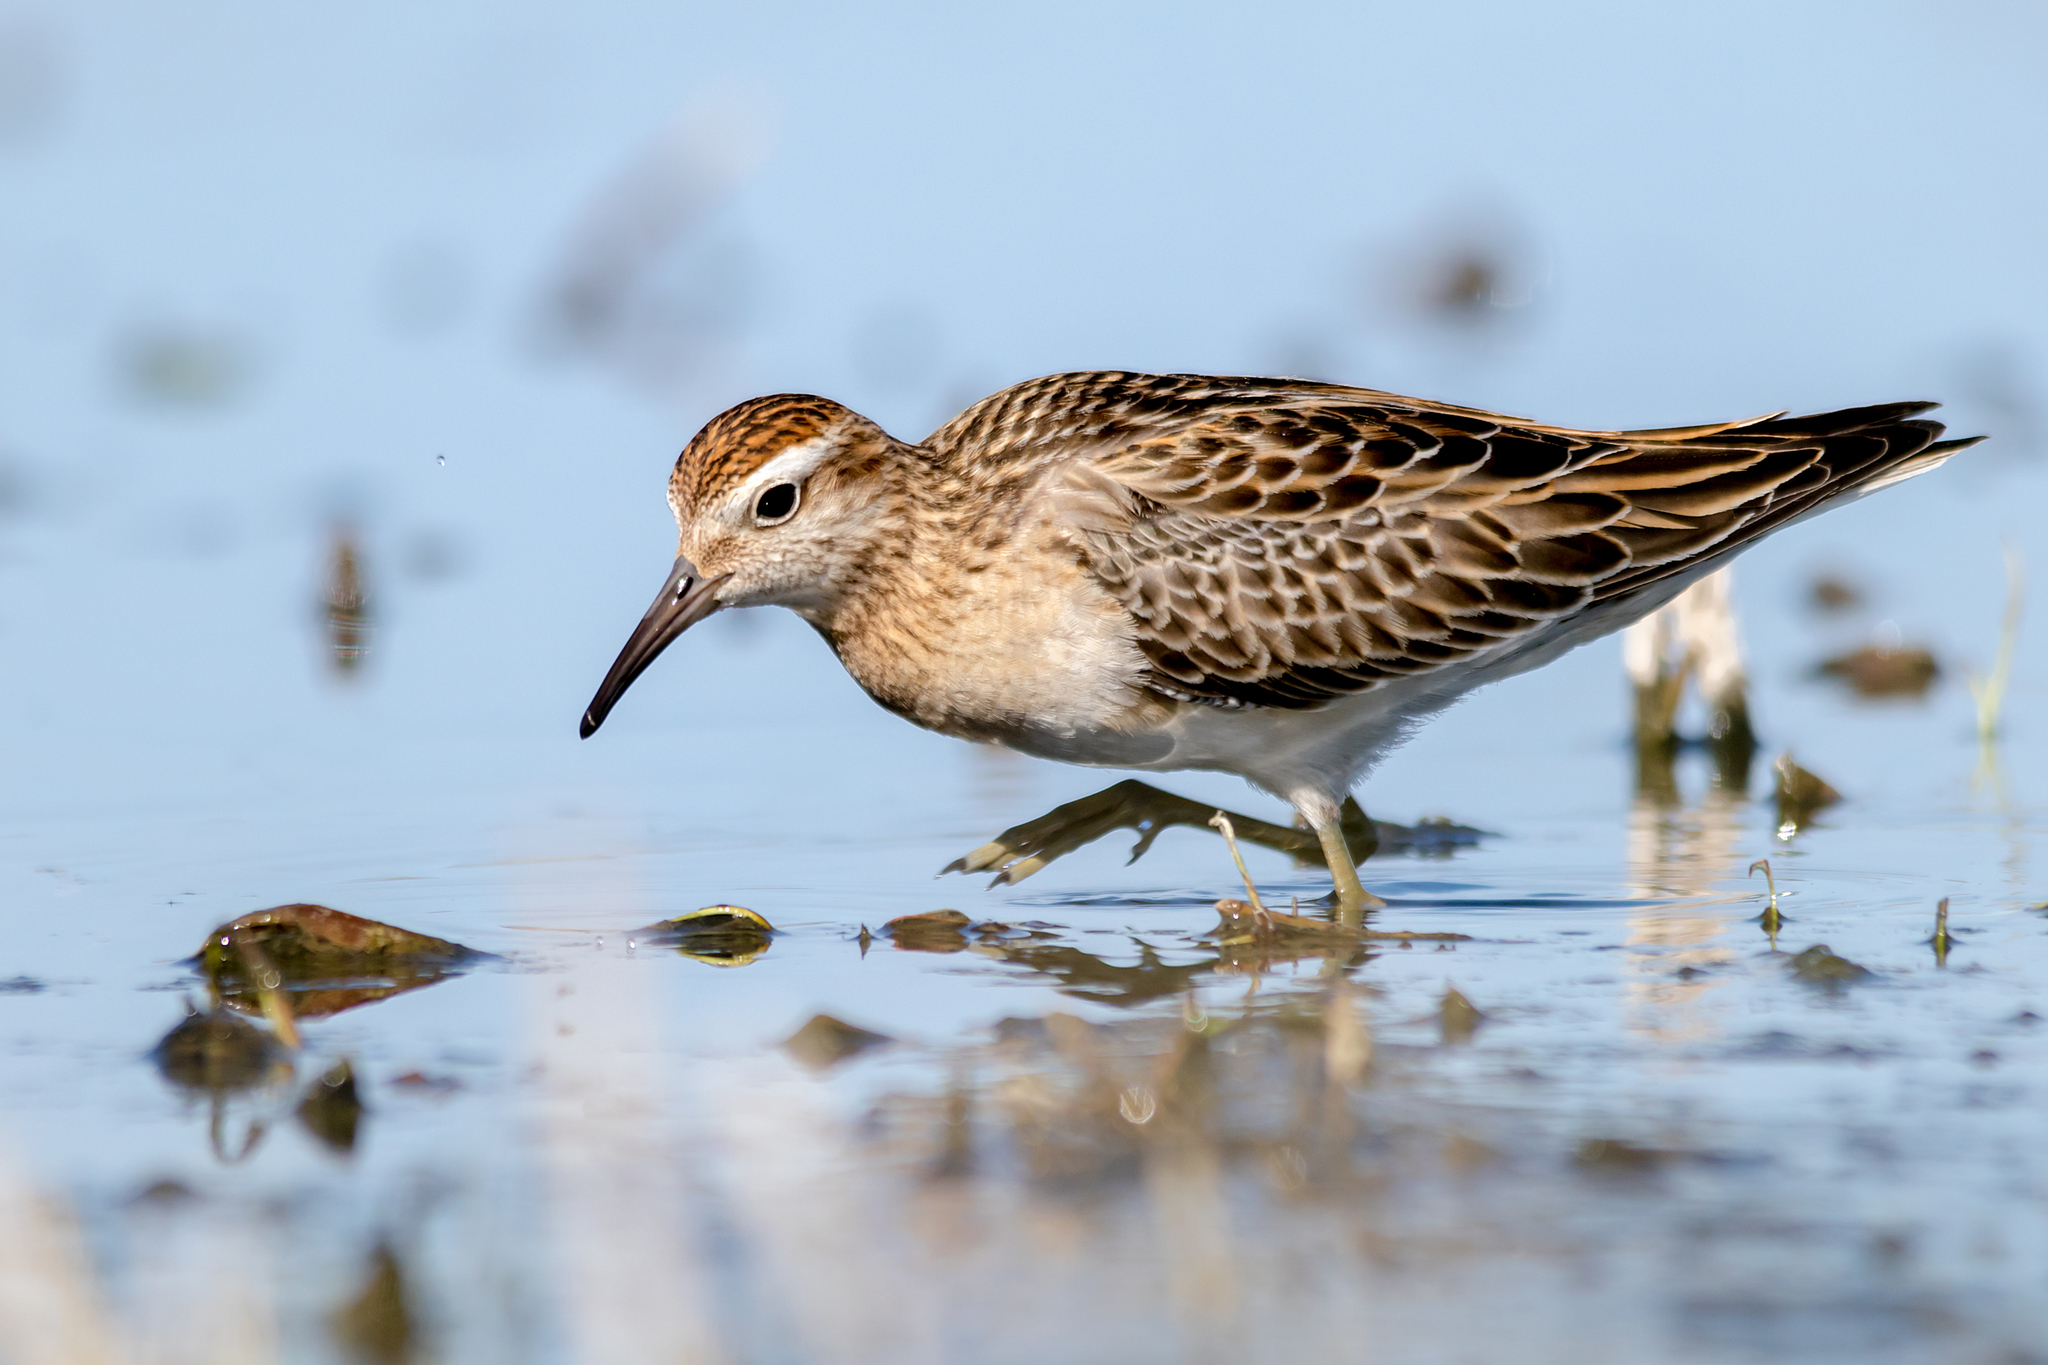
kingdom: Animalia
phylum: Chordata
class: Aves
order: Charadriiformes
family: Scolopacidae
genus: Calidris
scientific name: Calidris acuminata
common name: Sharp-tailed sandpiper
